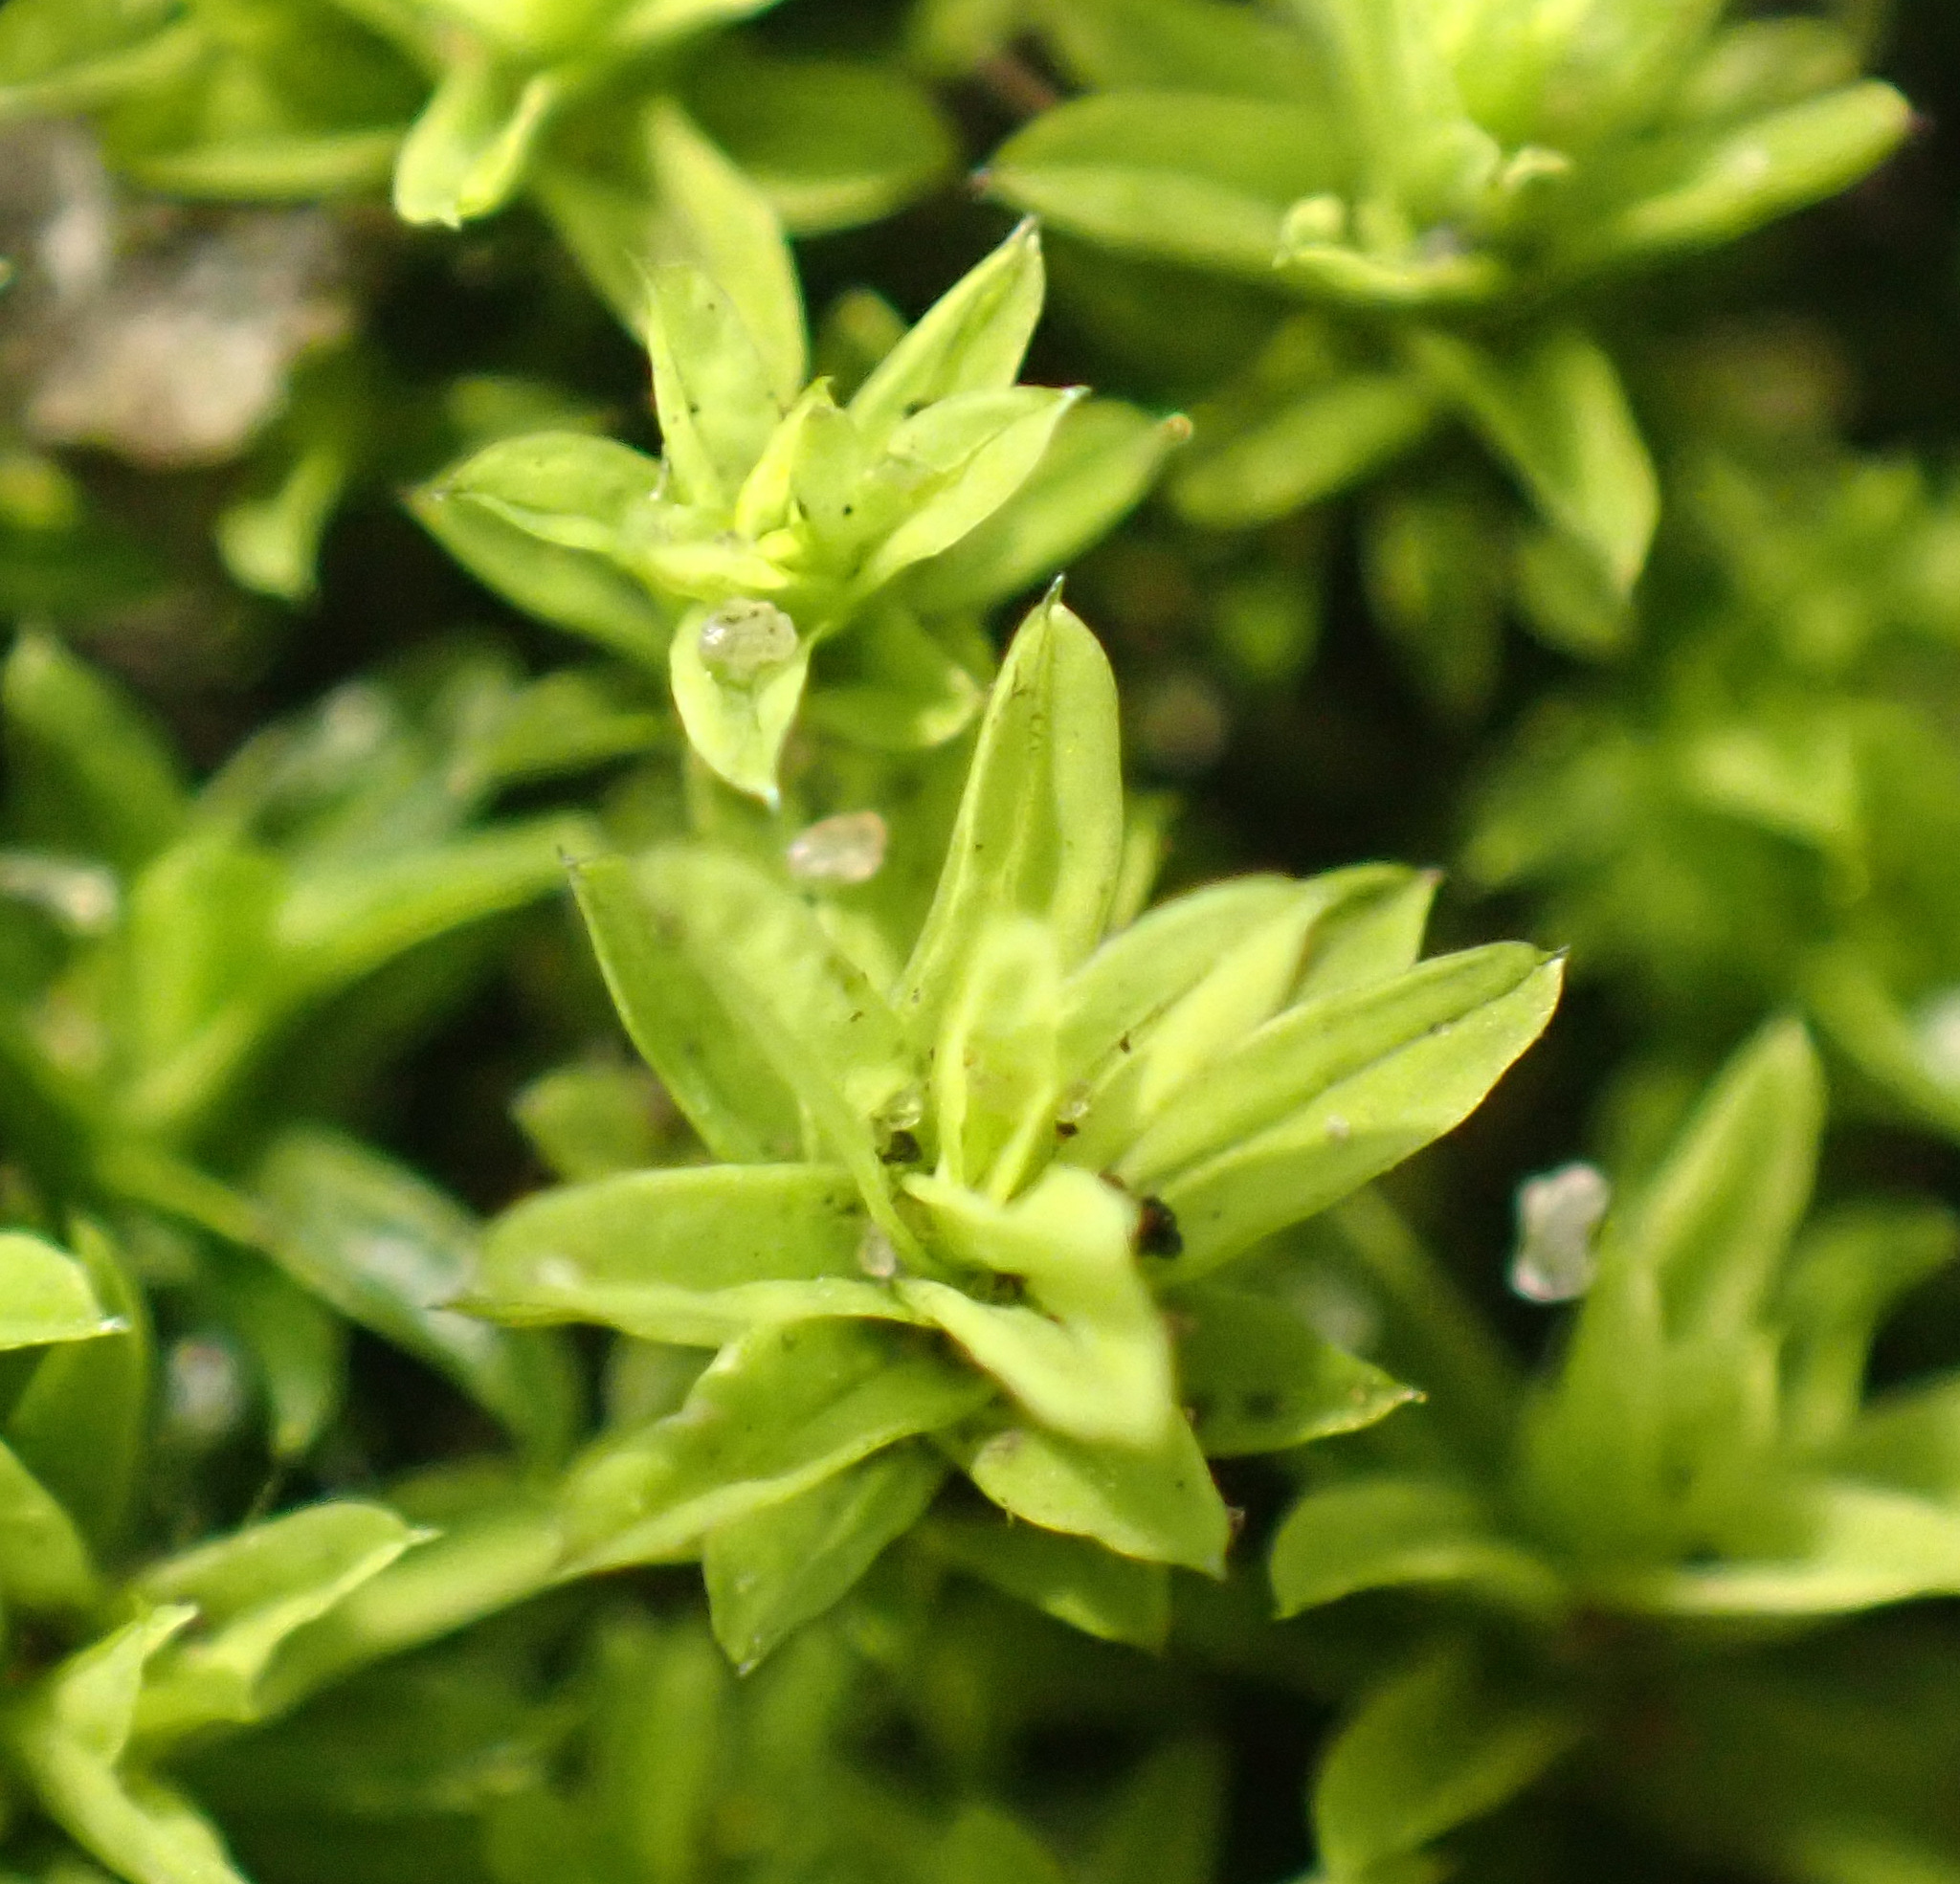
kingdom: Plantae
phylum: Bryophyta
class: Bryopsida
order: Pottiales
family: Pottiaceae
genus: Barbula
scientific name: Barbula unguiculata
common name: Prickly beard moss
